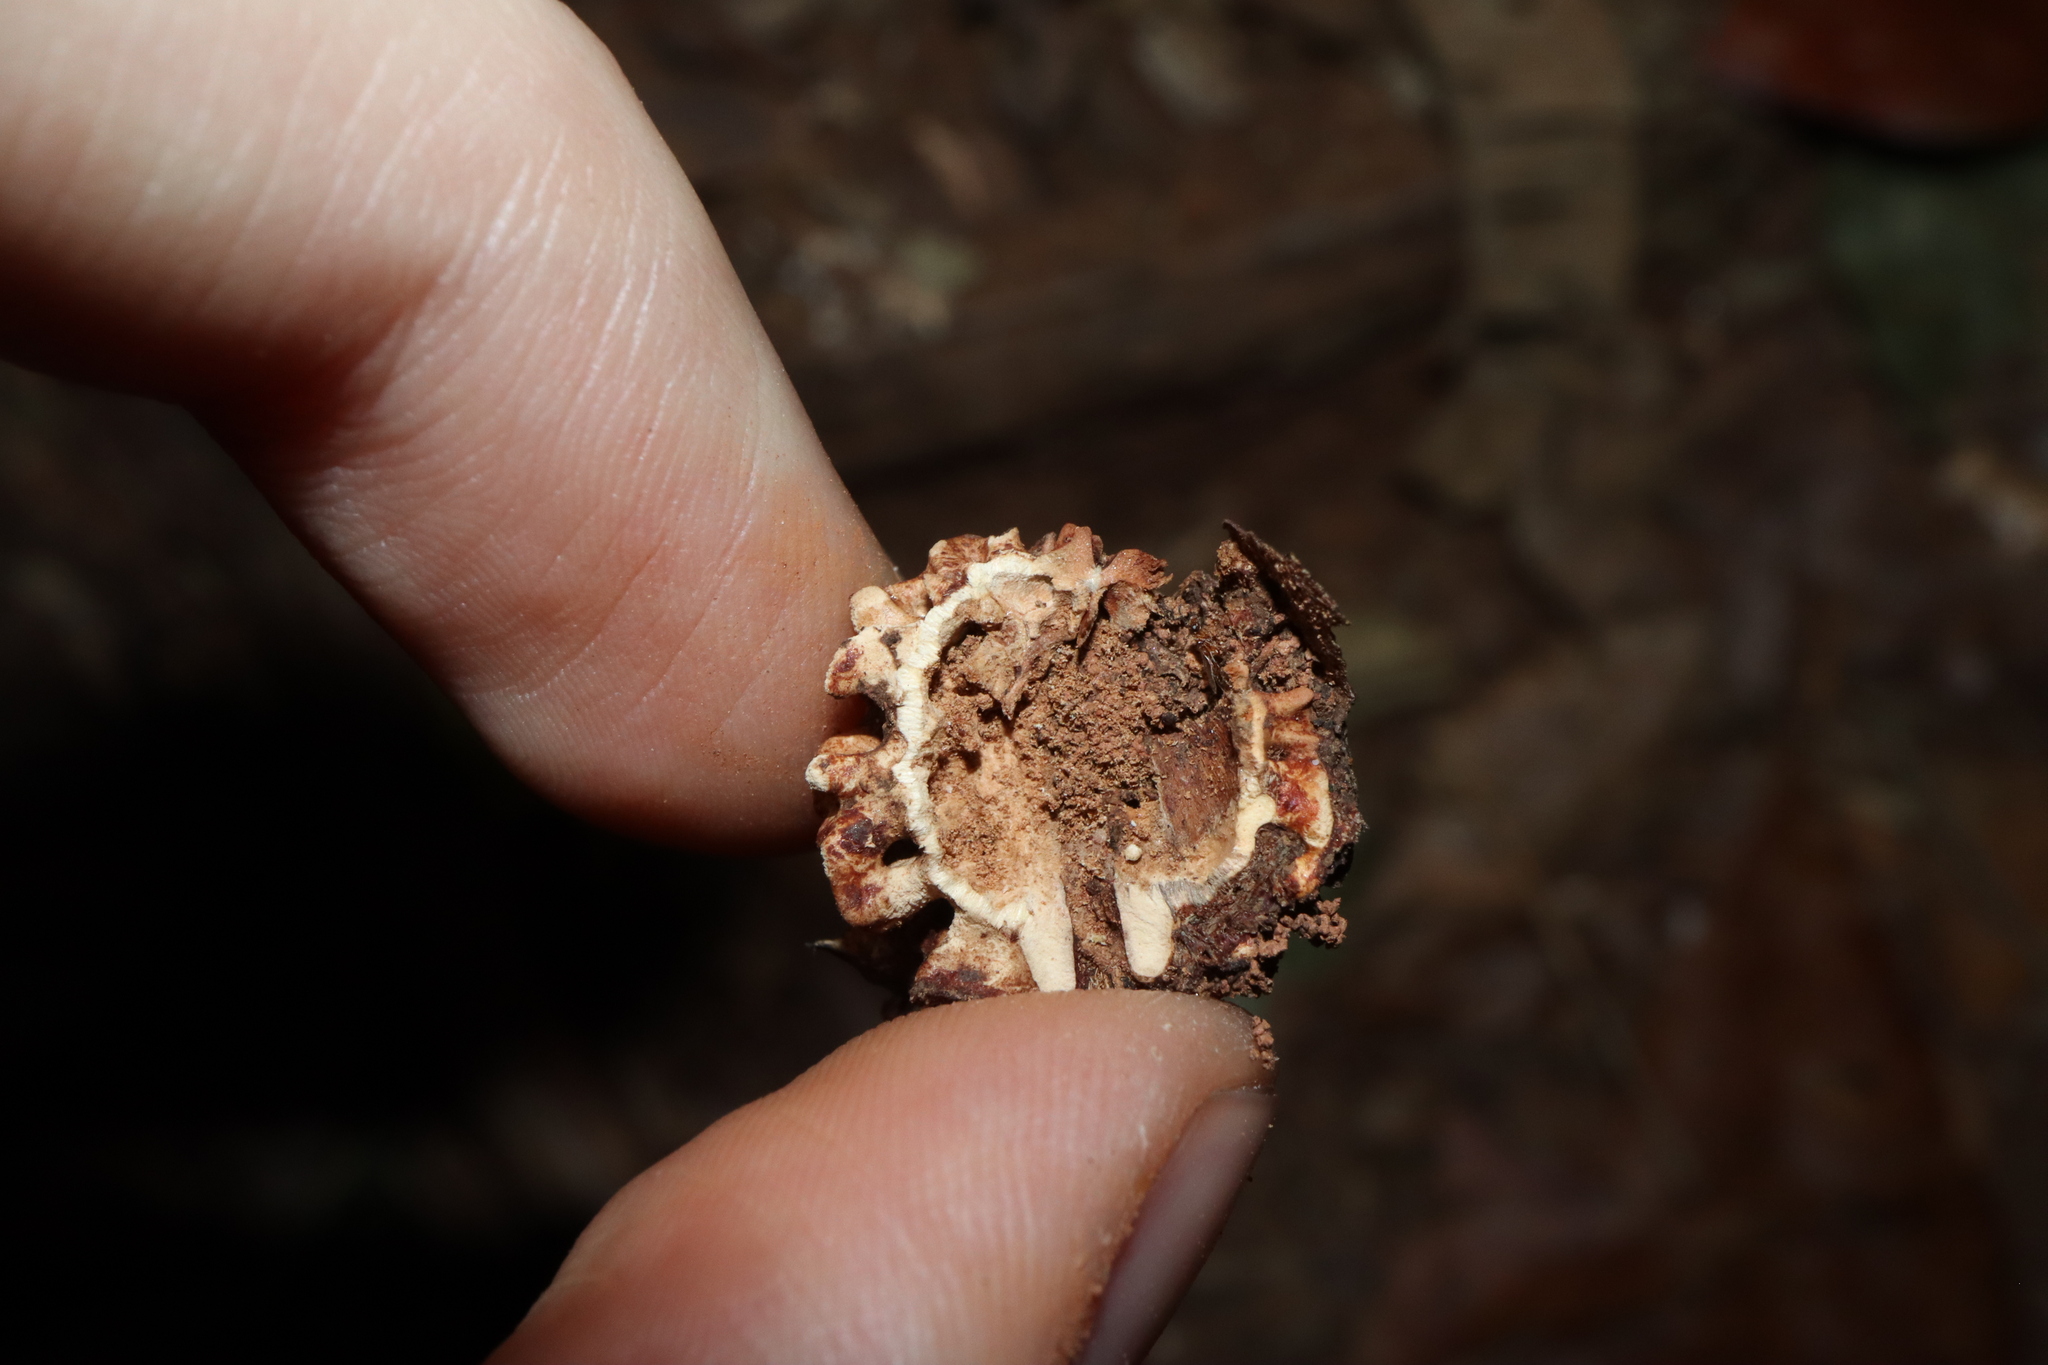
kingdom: Plantae
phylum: Tracheophyta
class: Magnoliopsida
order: Oxalidales
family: Elaeocarpaceae
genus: Elaeocarpus
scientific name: Elaeocarpus angustifolius
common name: Blue marble tree
